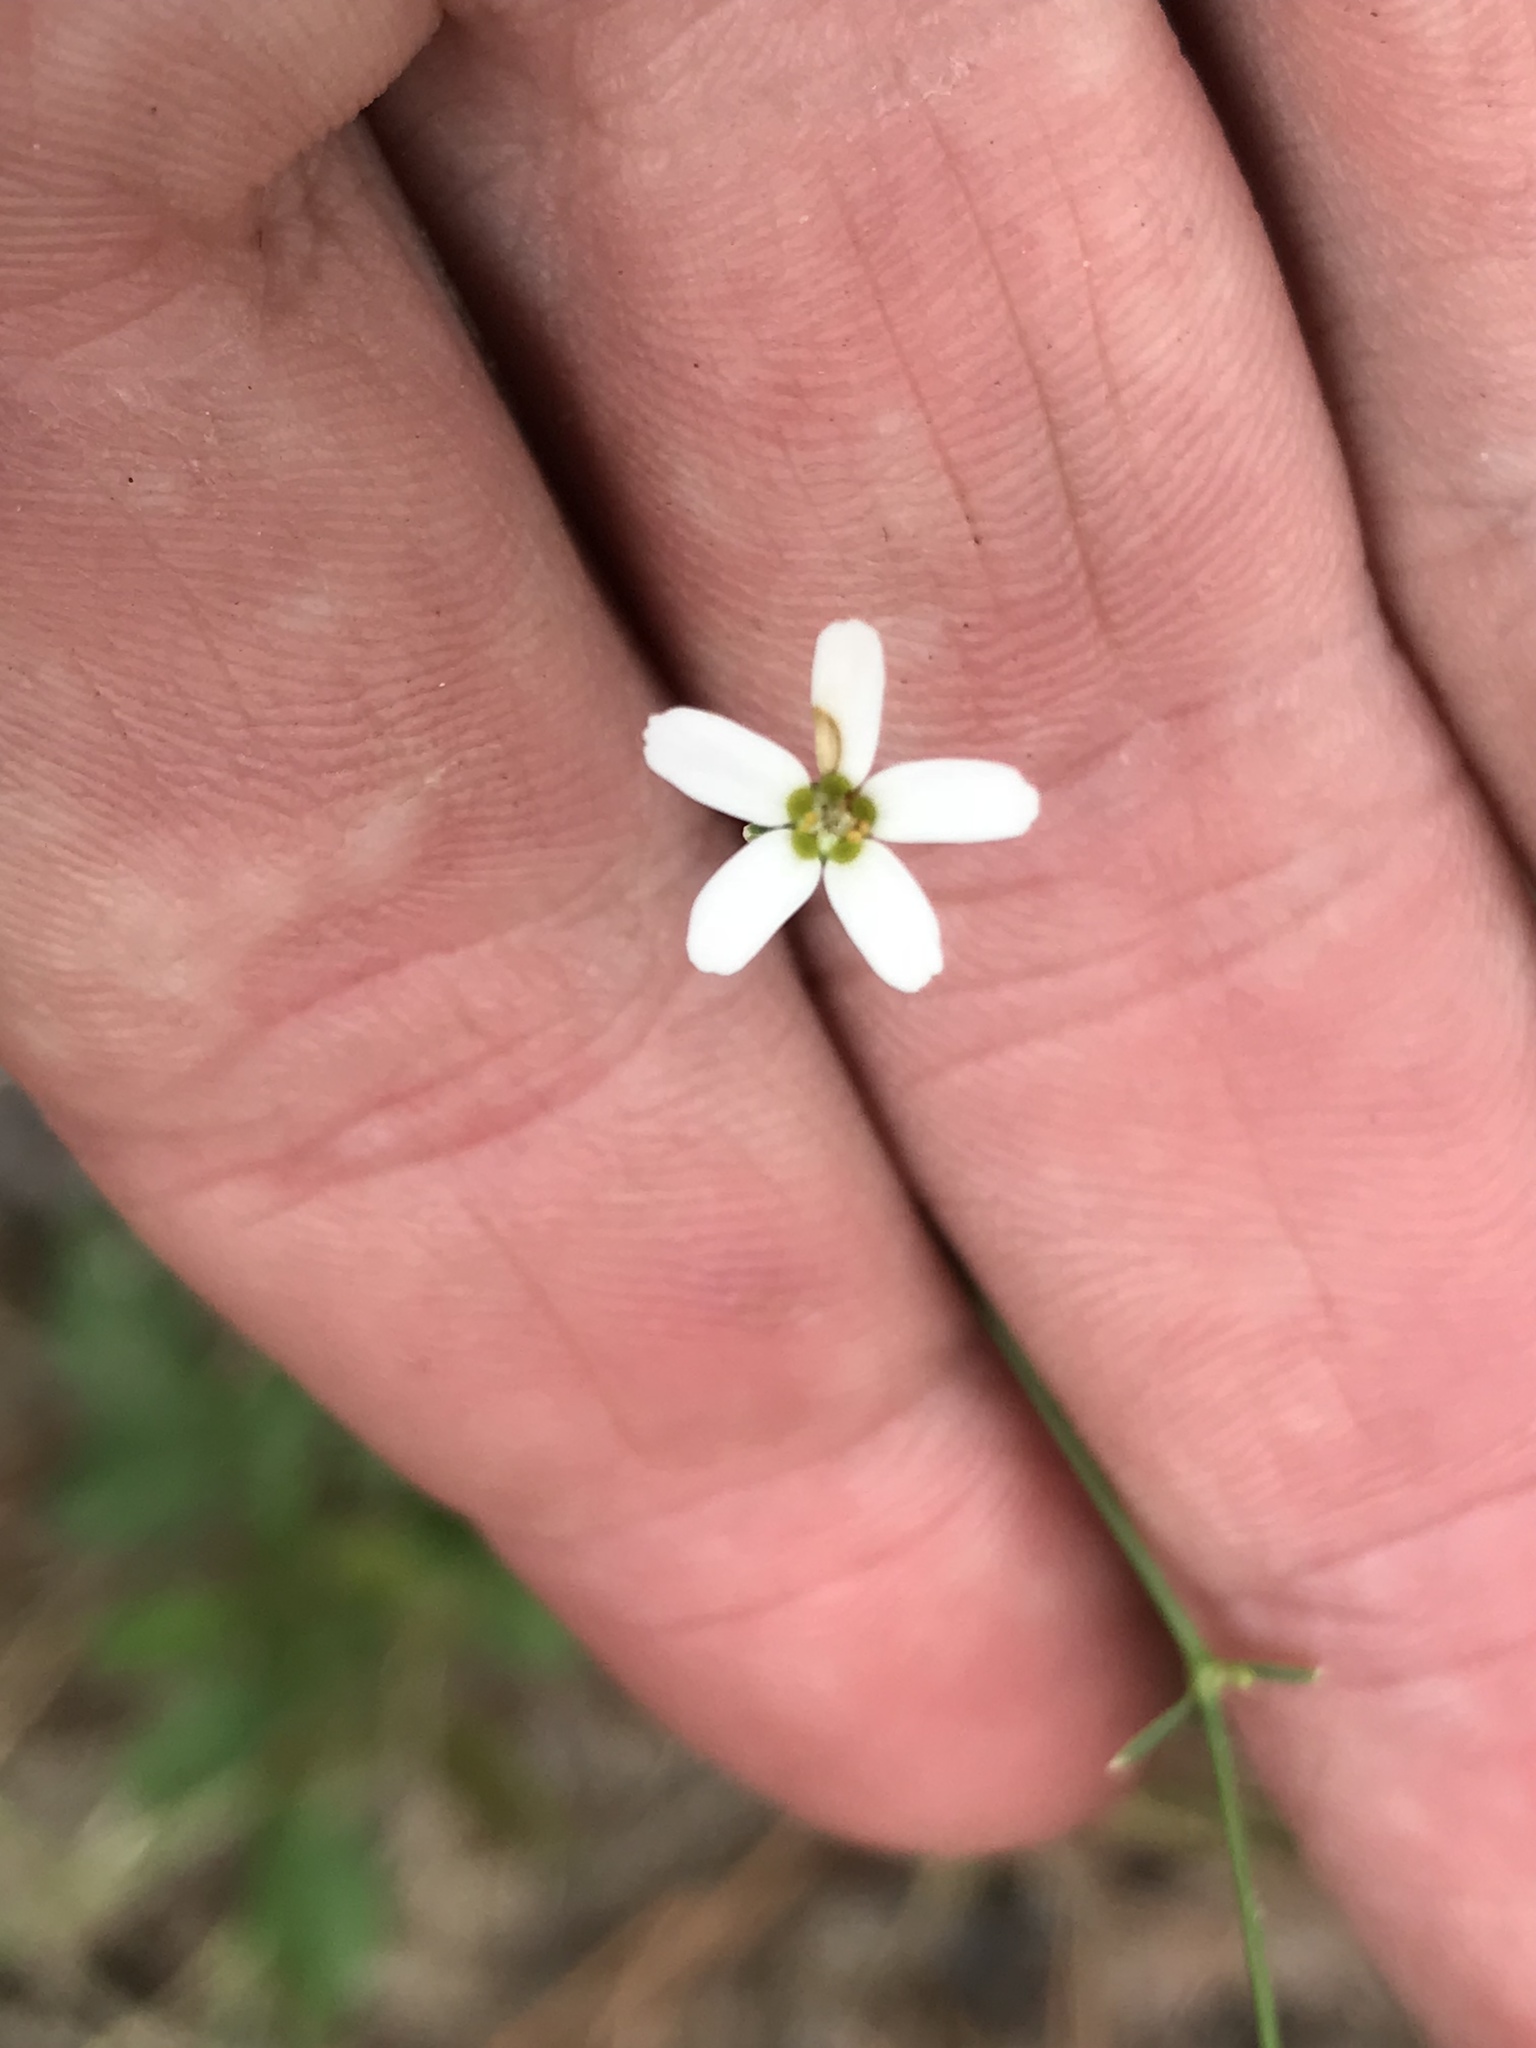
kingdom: Plantae
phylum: Tracheophyta
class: Magnoliopsida
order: Malpighiales
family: Euphorbiaceae
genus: Euphorbia
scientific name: Euphorbia corollata
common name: Flowering spurge
